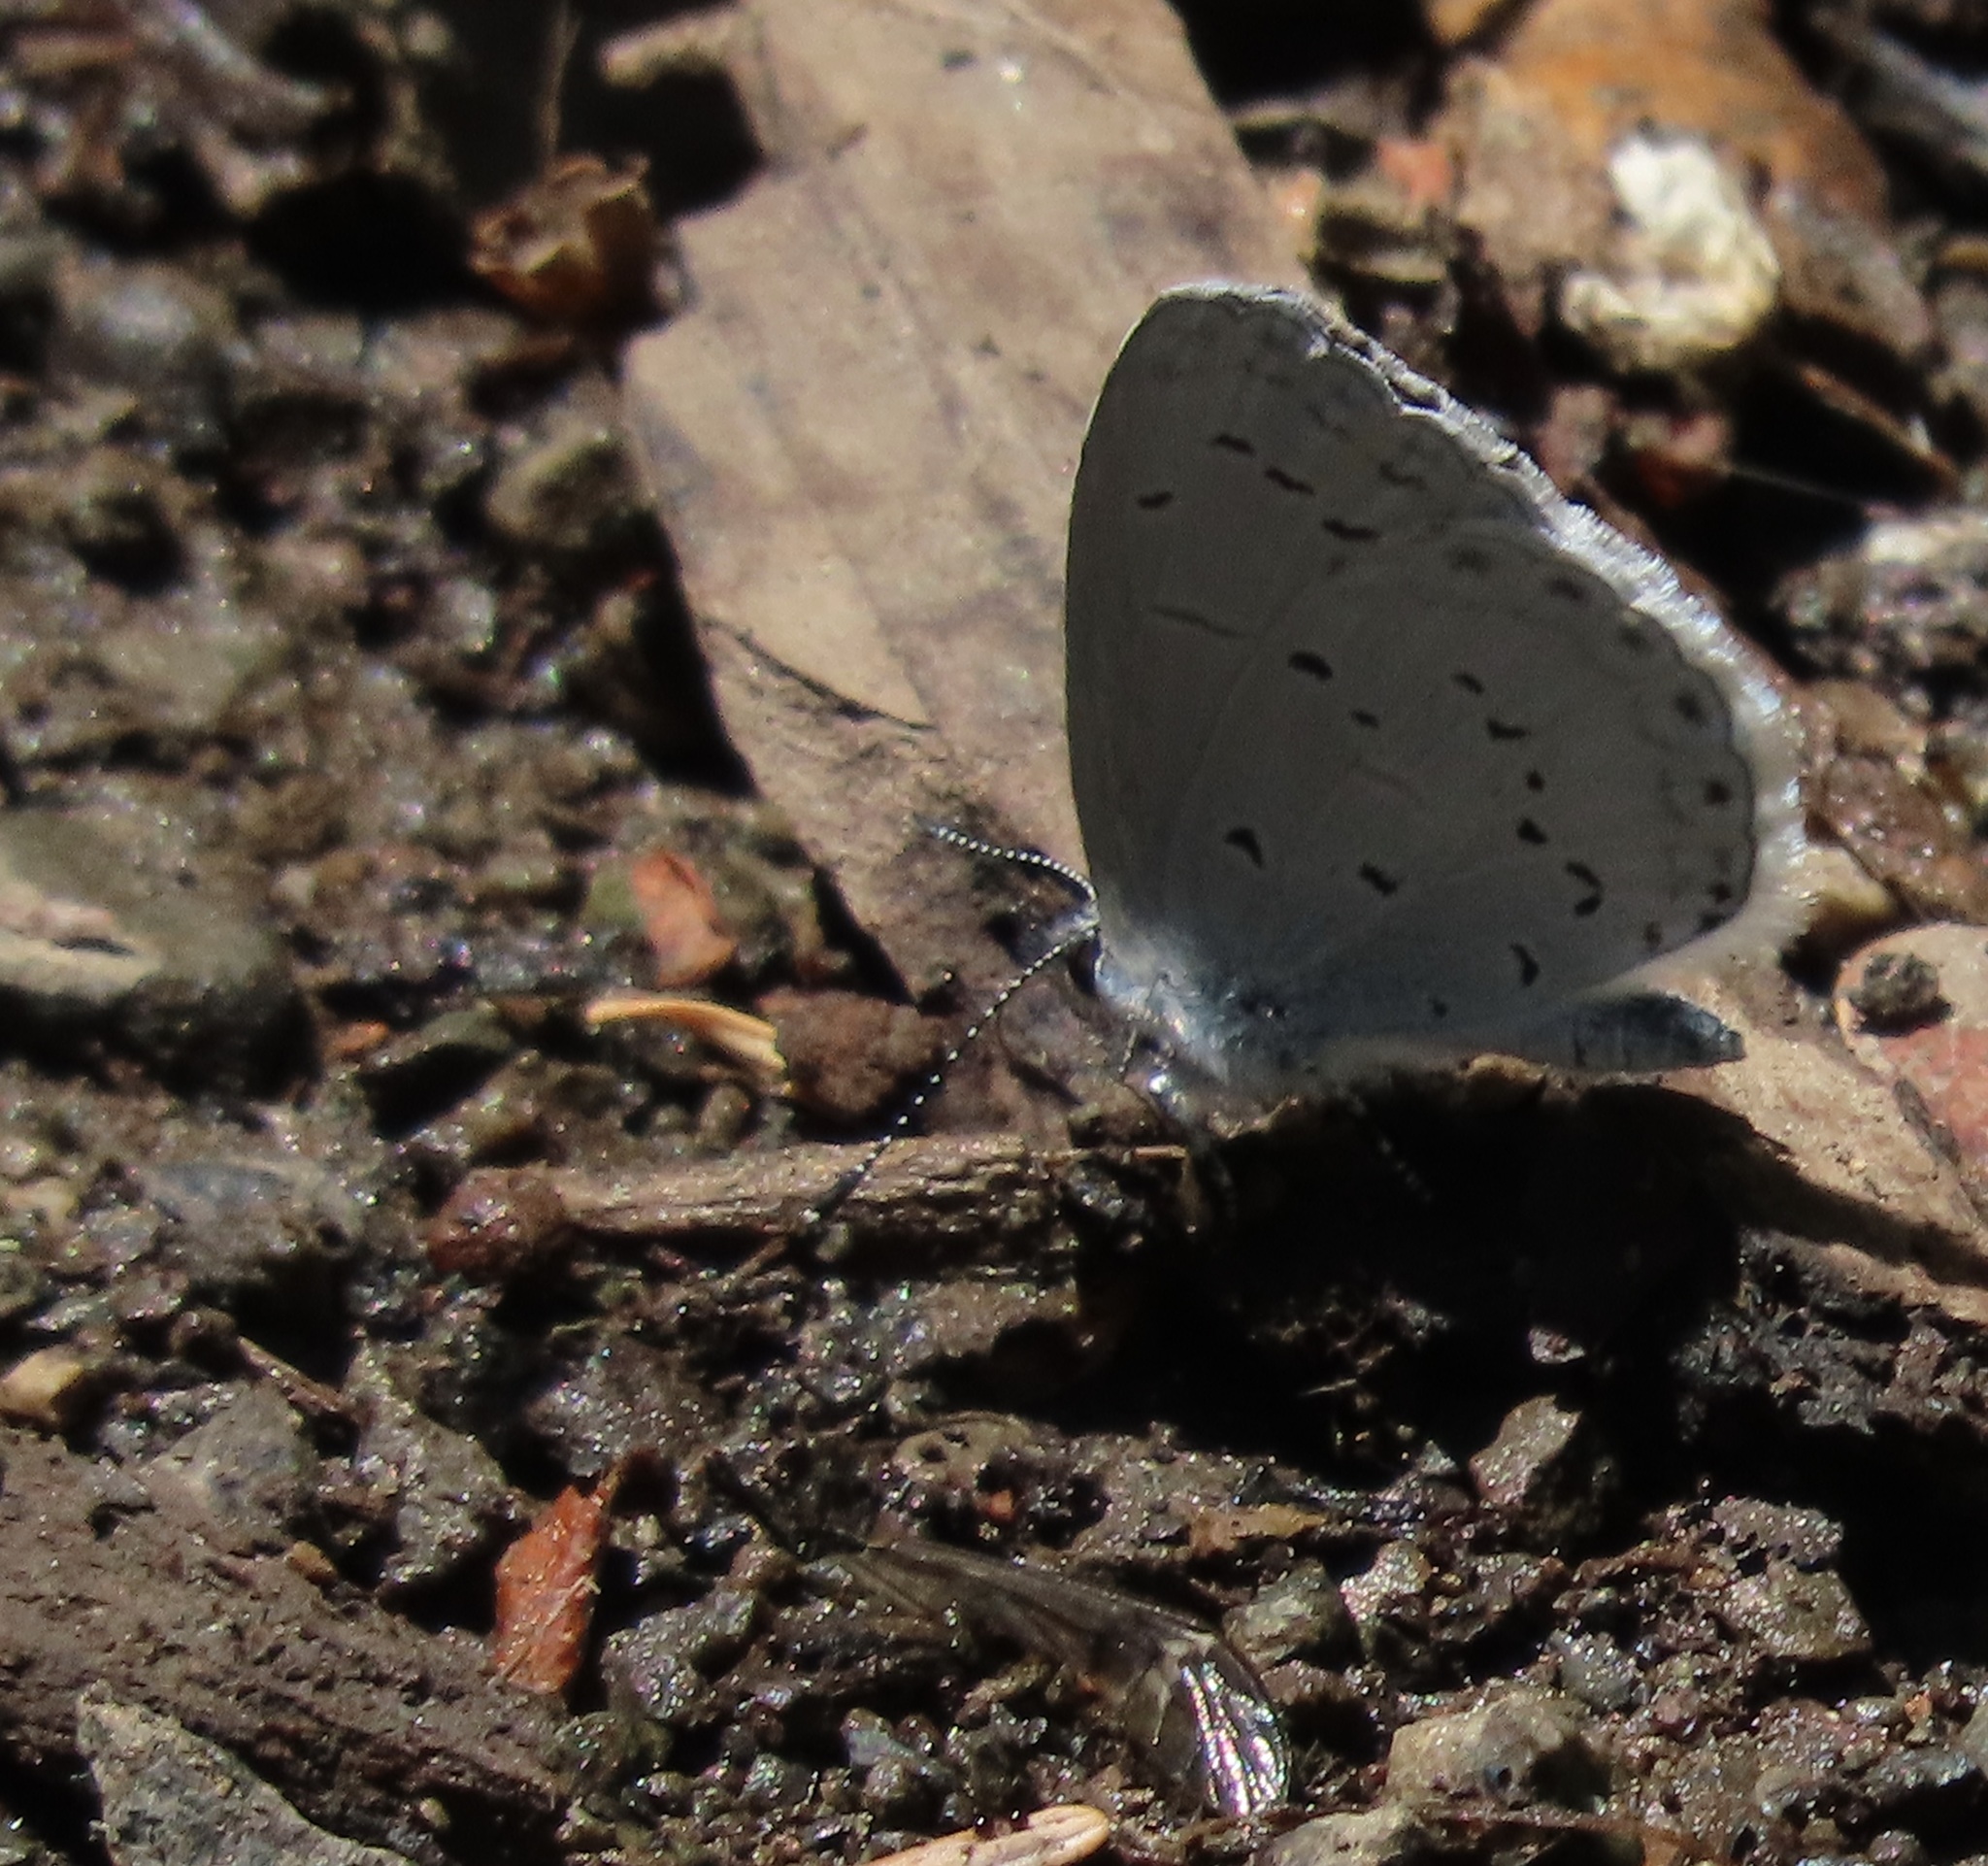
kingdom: Animalia
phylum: Arthropoda
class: Insecta
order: Lepidoptera
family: Lycaenidae
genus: Celastrina
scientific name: Celastrina ladon
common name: Spring azure
